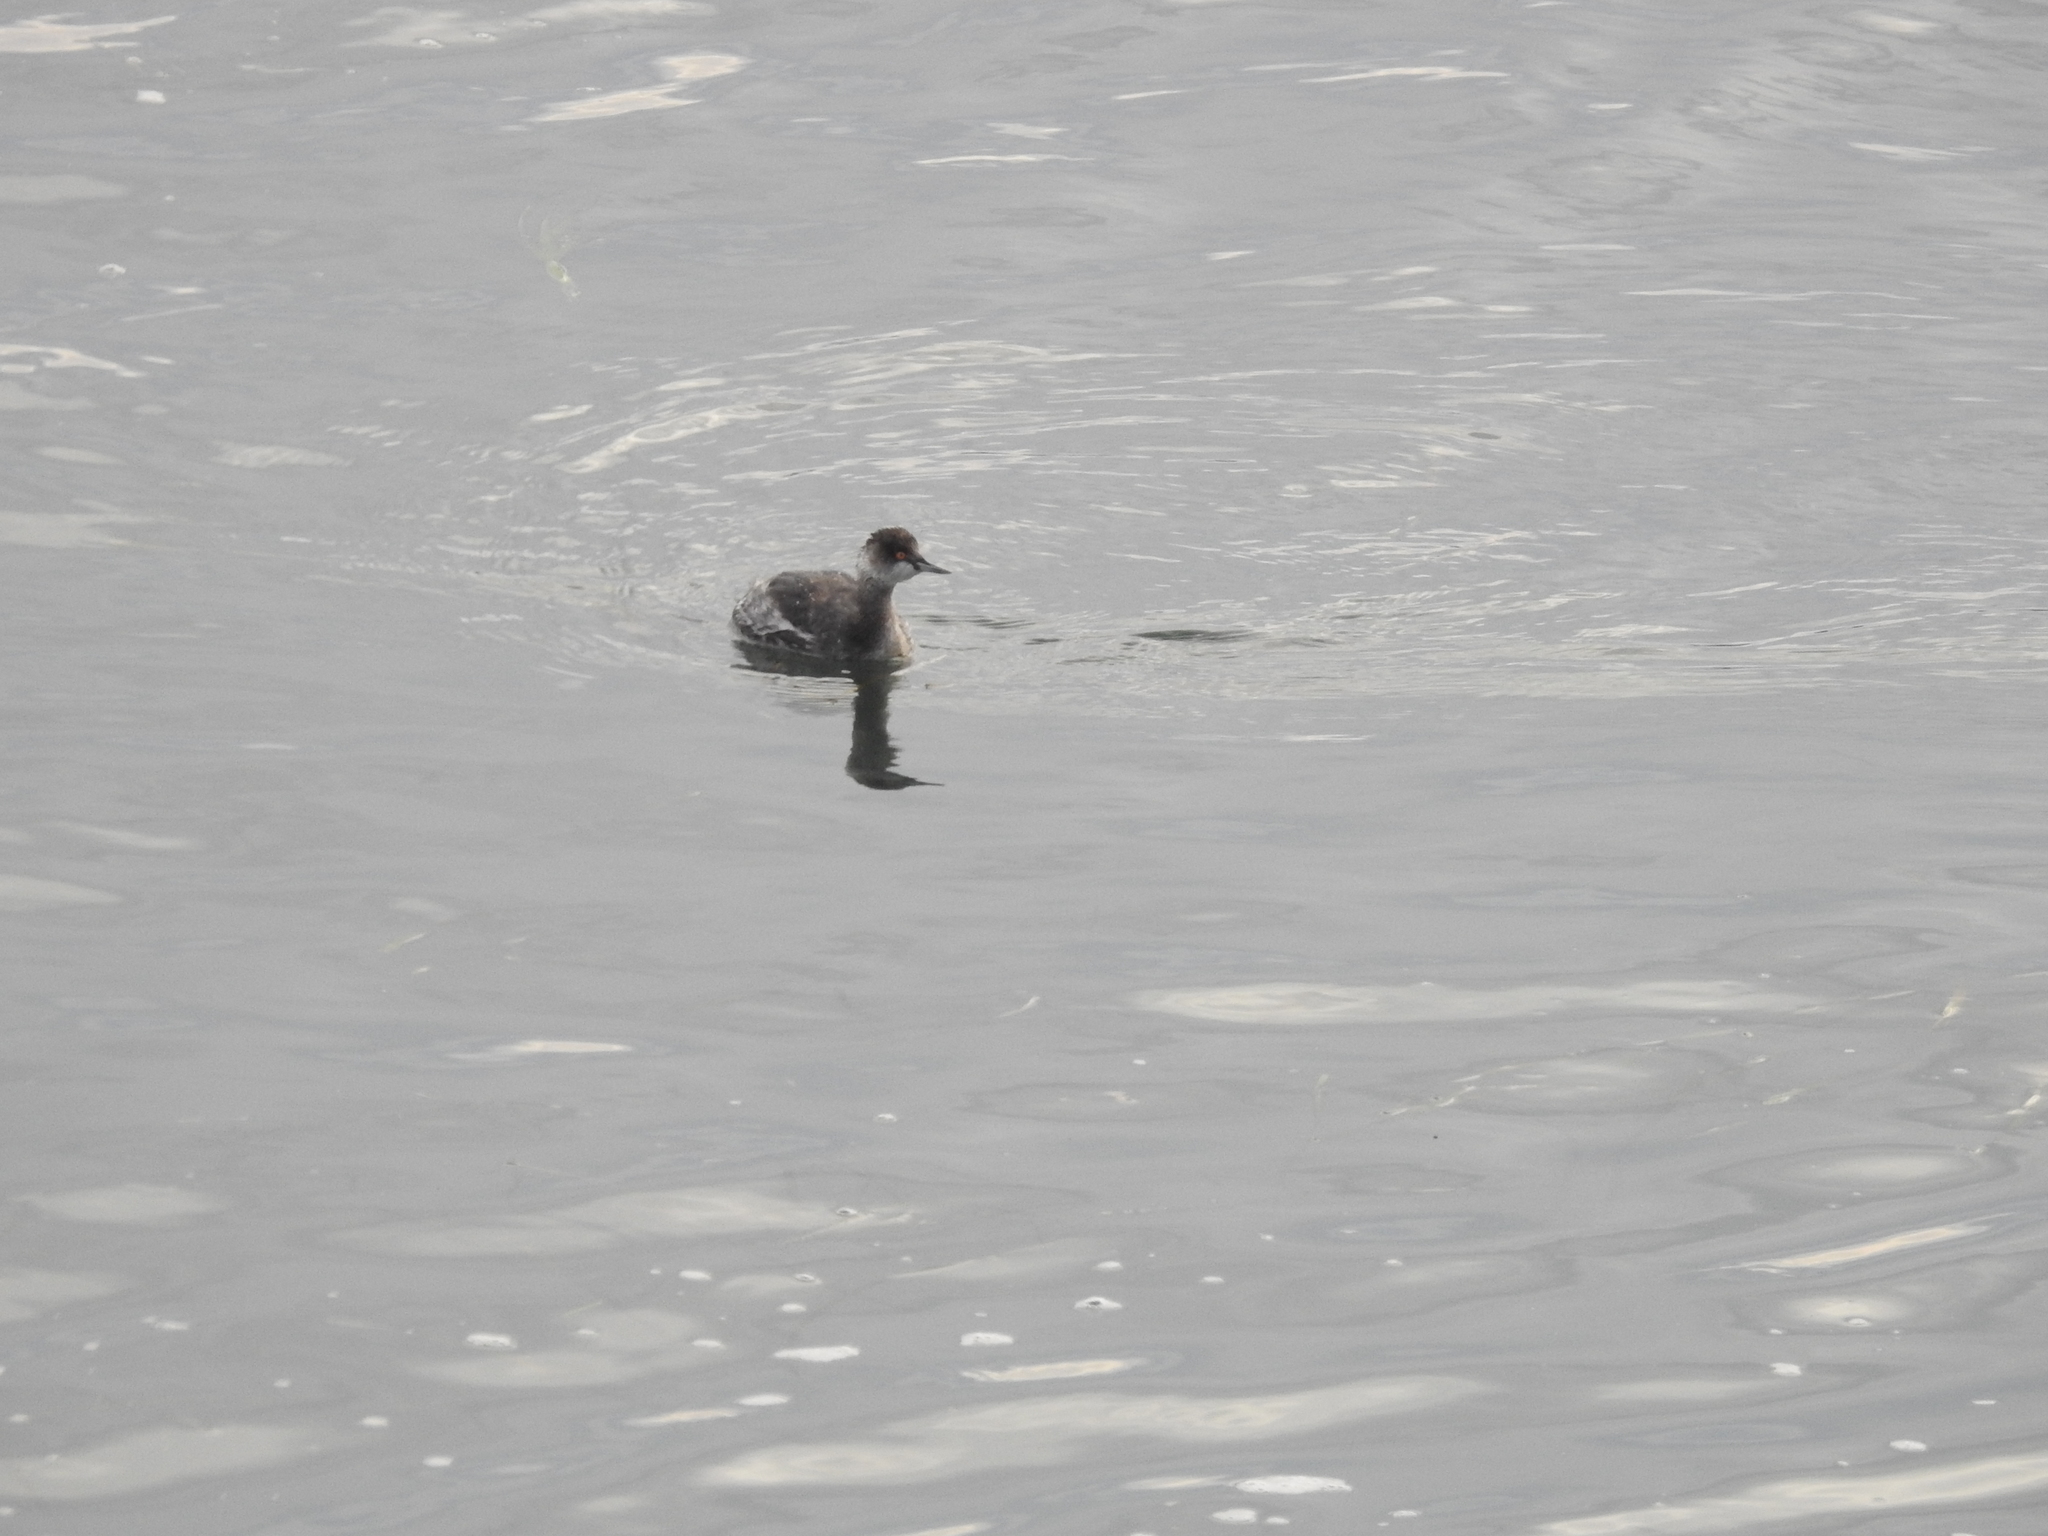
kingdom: Animalia
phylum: Chordata
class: Aves
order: Podicipediformes
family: Podicipedidae
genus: Podiceps
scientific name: Podiceps nigricollis
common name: Black-necked grebe
